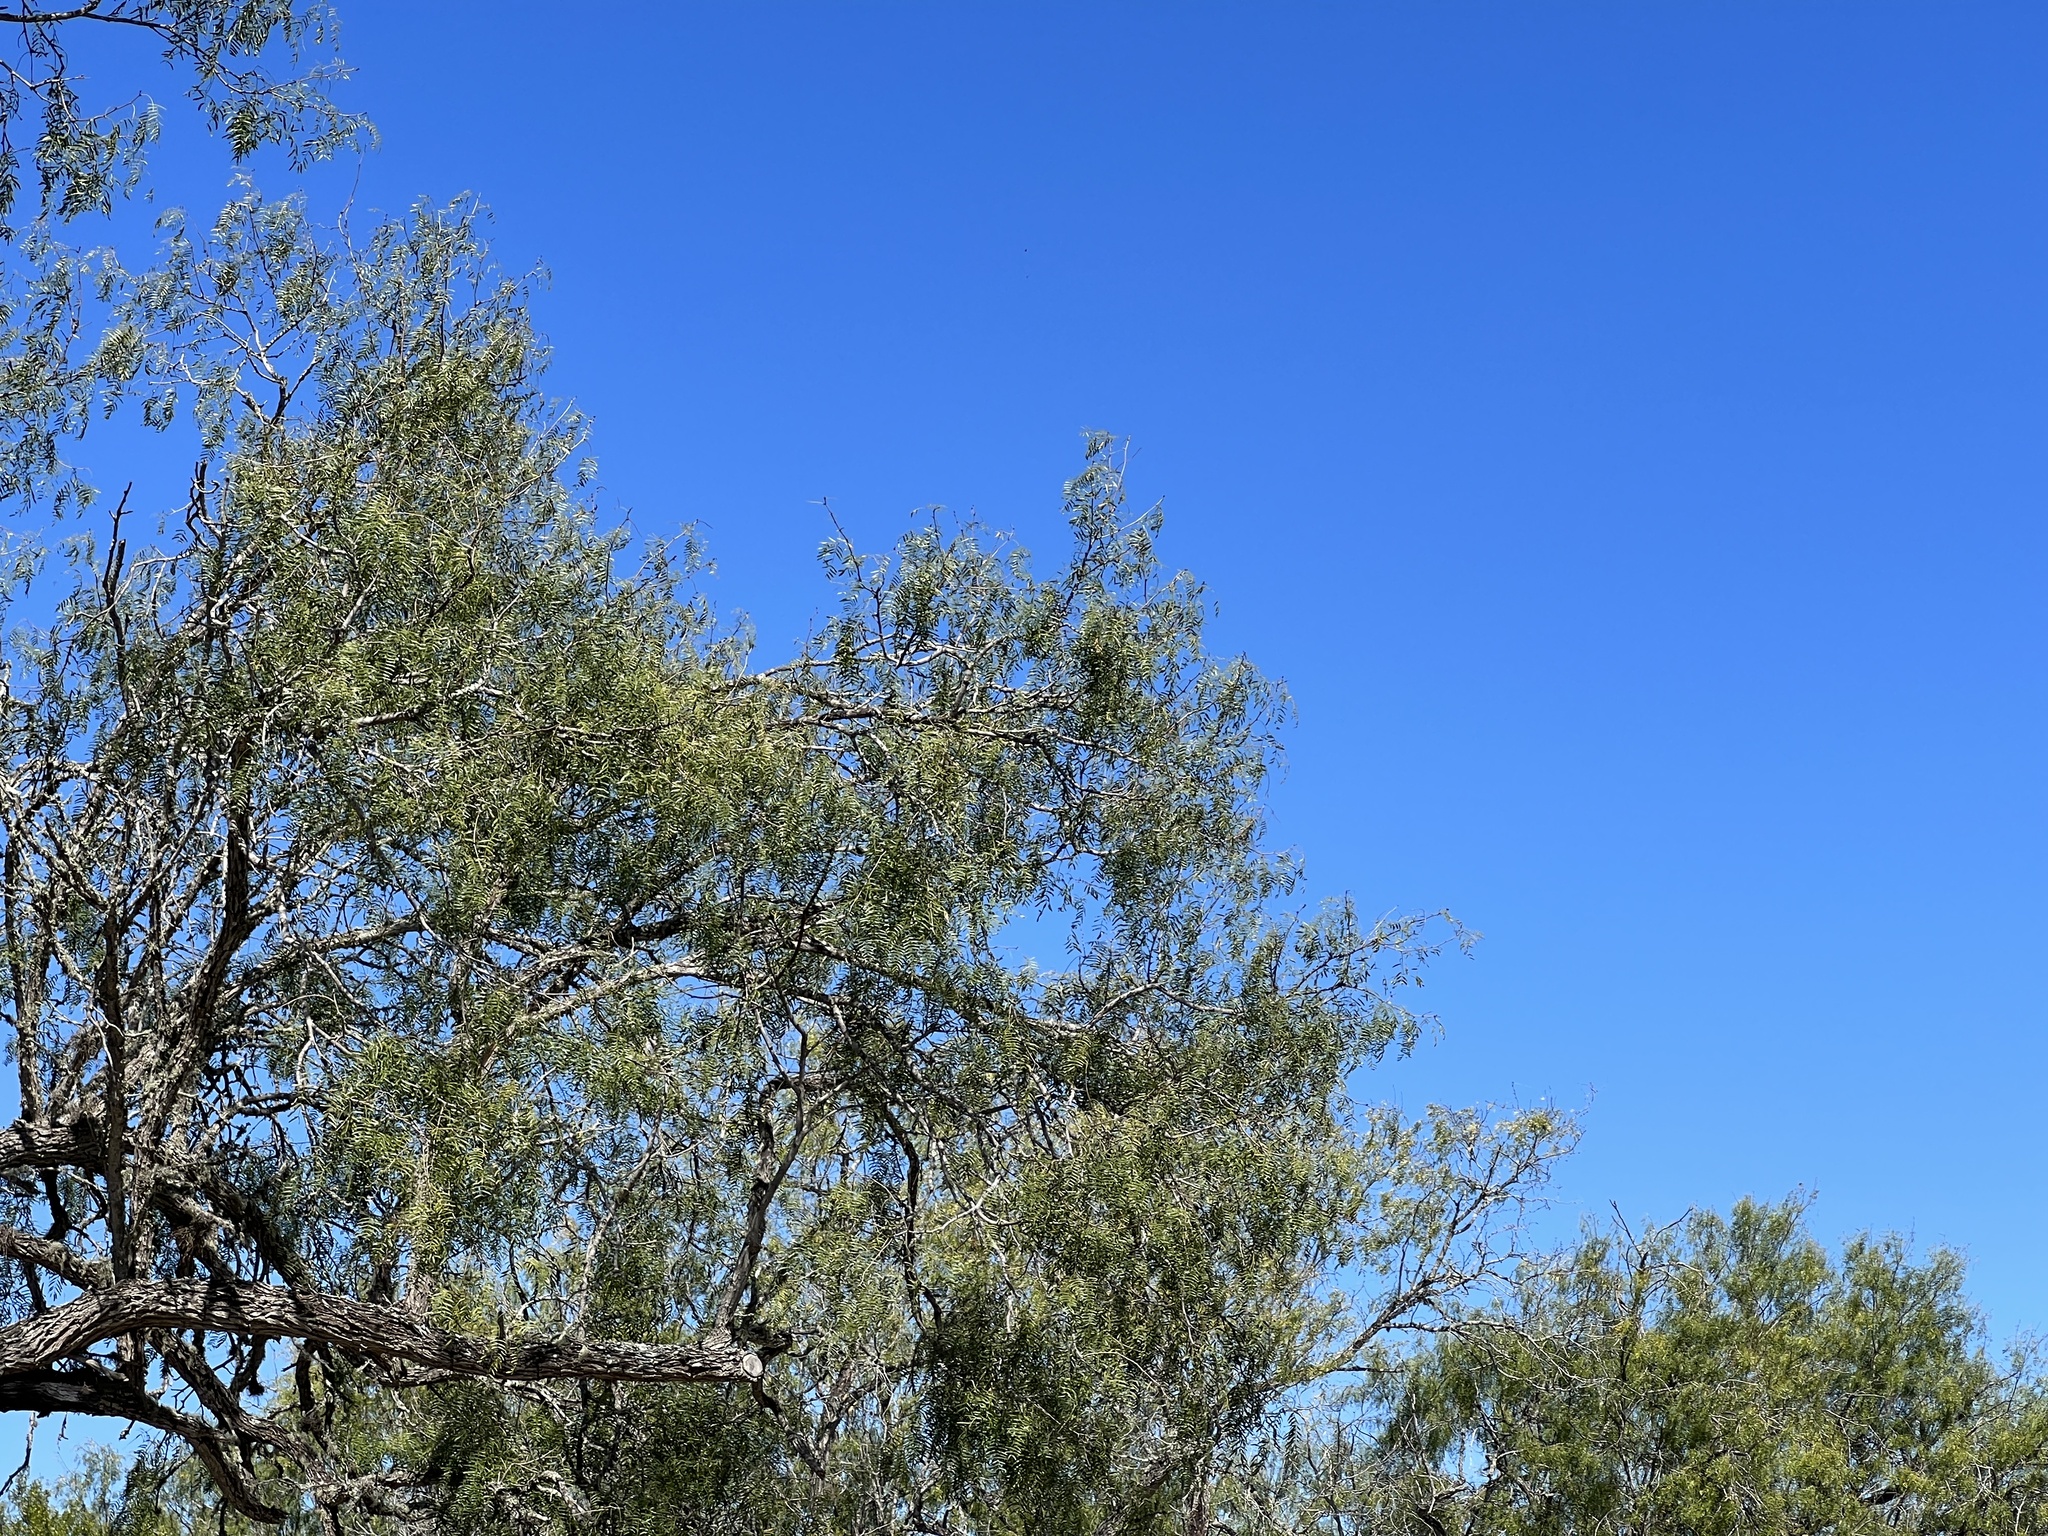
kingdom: Plantae
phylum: Tracheophyta
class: Magnoliopsida
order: Fabales
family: Fabaceae
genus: Prosopis
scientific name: Prosopis glandulosa
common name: Honey mesquite
